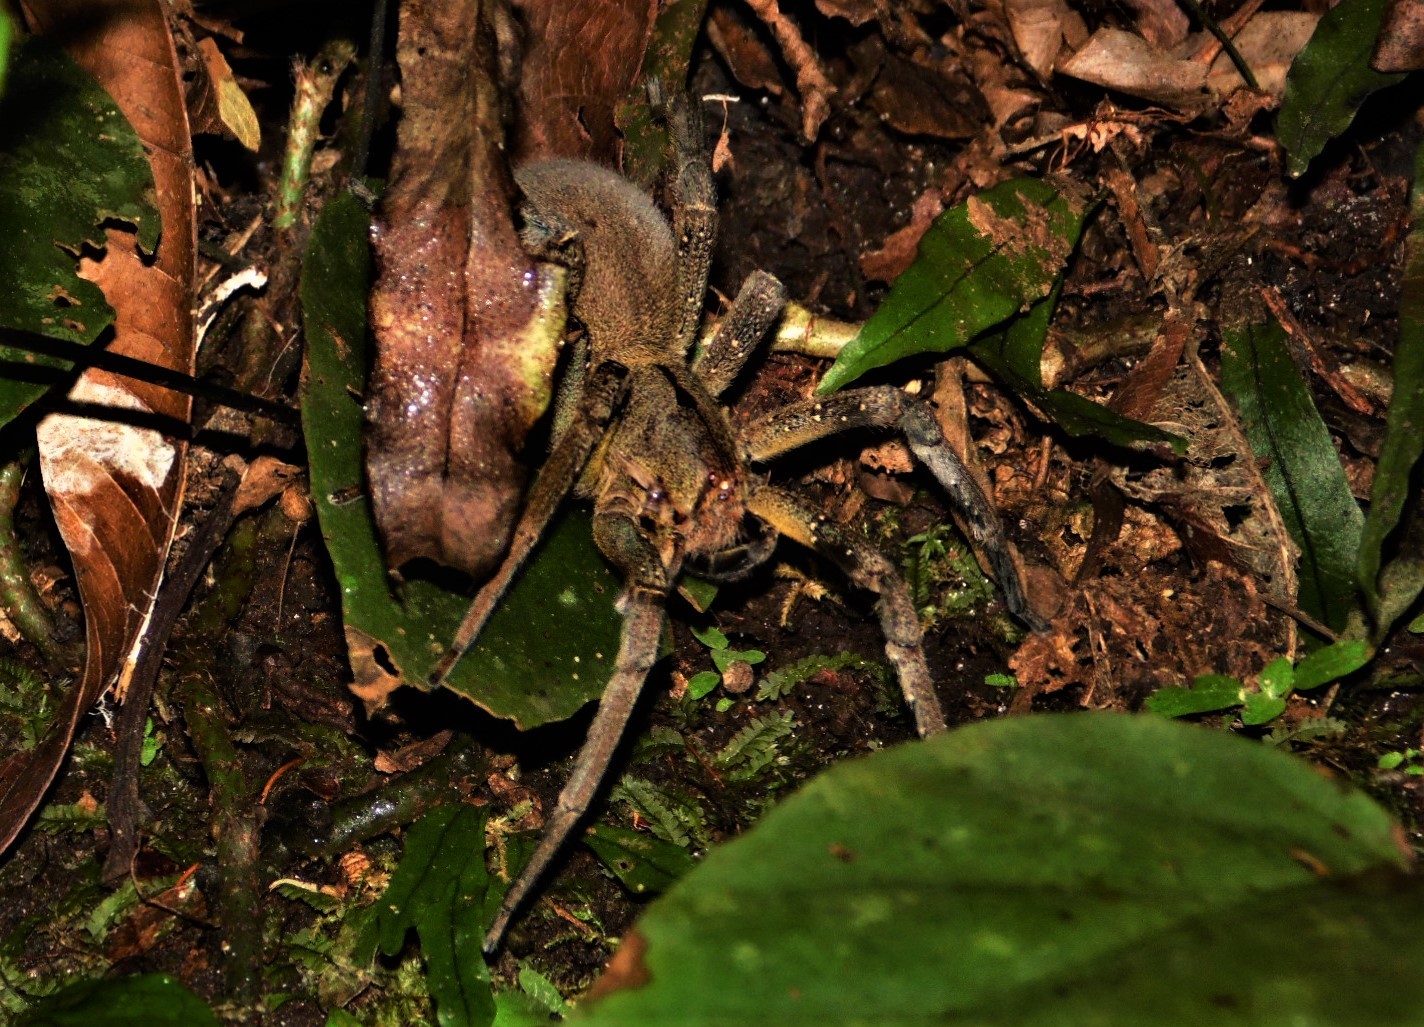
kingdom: Animalia
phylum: Arthropoda
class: Arachnida
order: Araneae
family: Ctenidae
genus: Phoneutria
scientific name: Phoneutria keyserlingi
